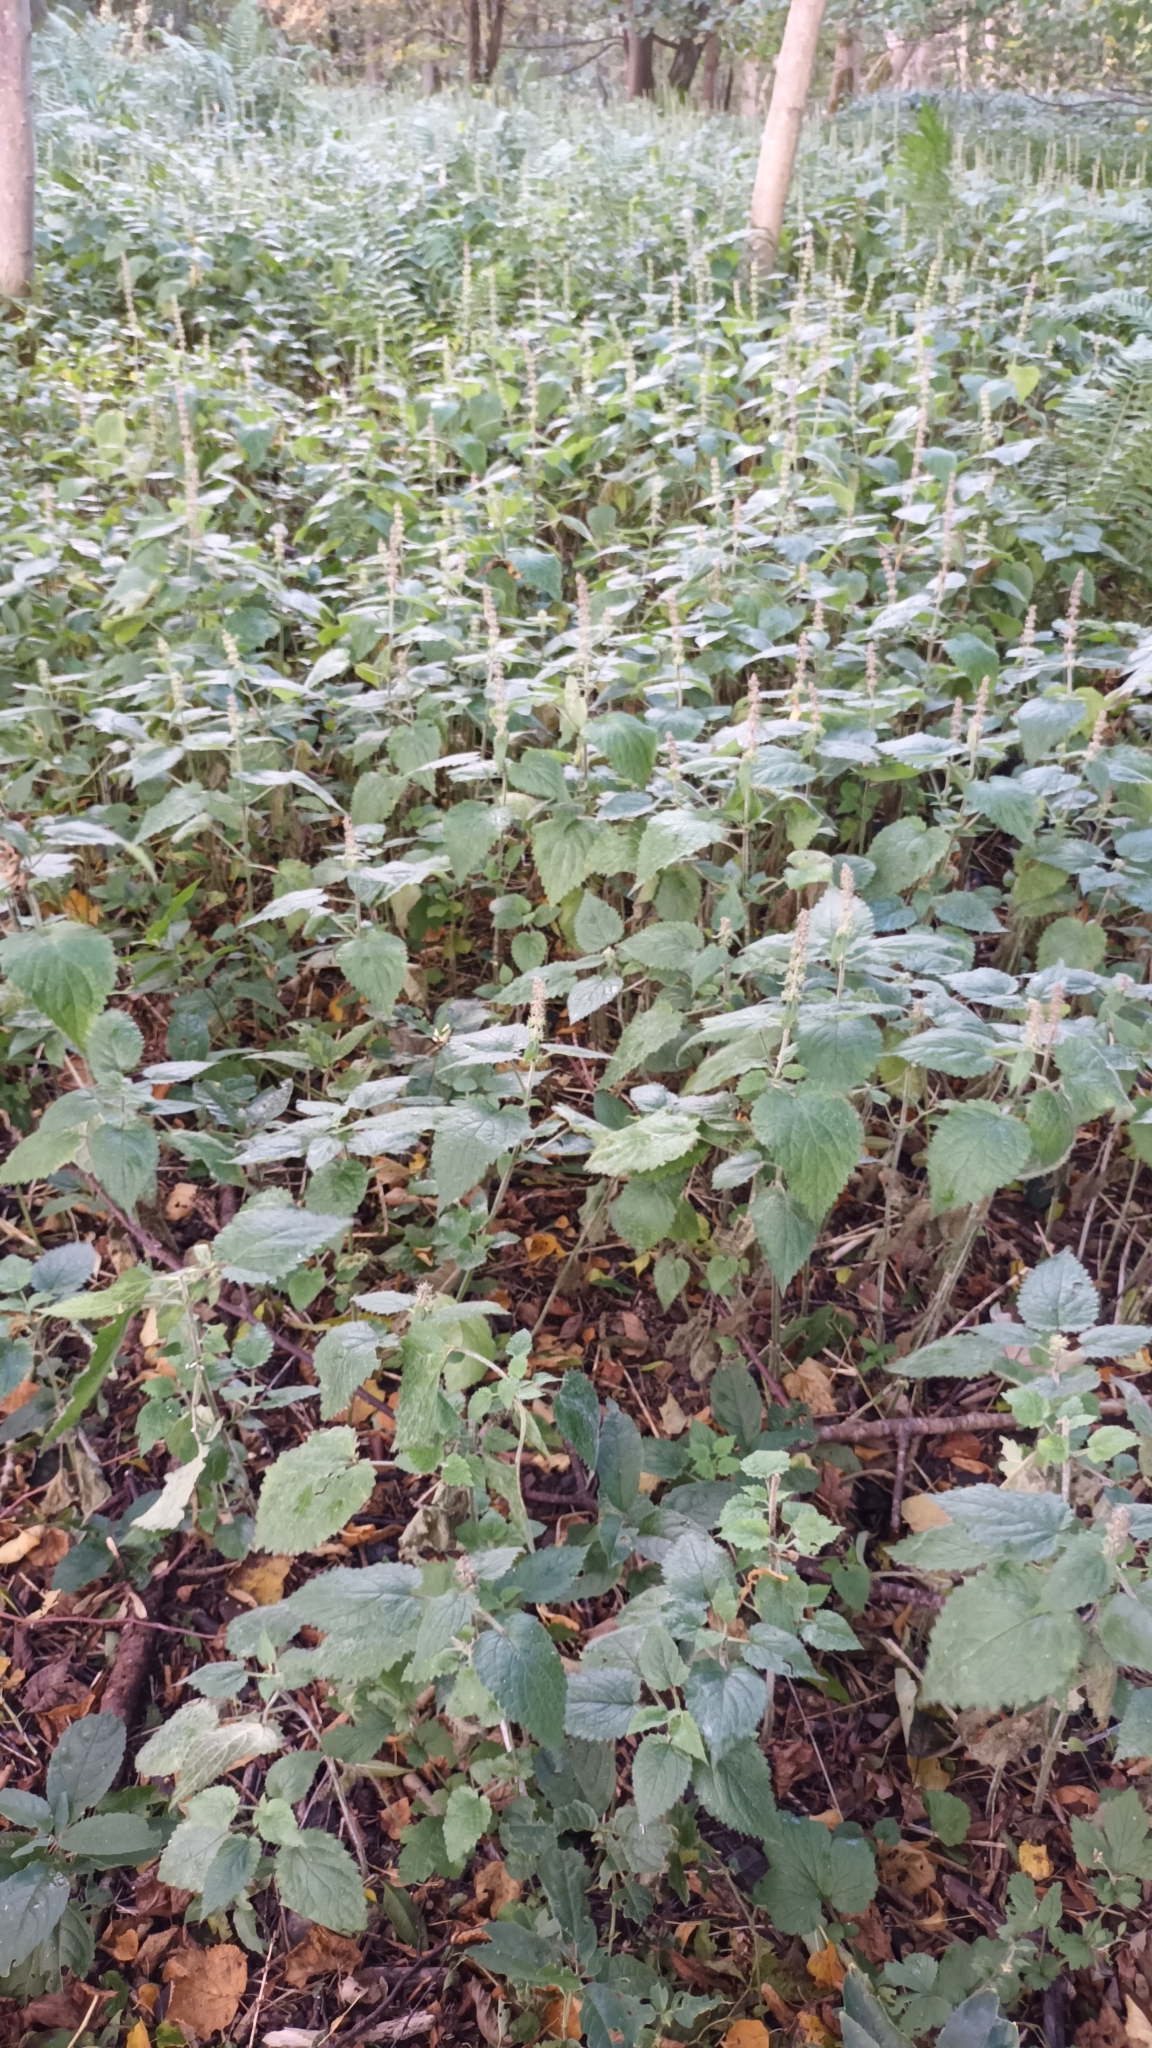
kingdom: Plantae
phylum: Tracheophyta
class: Magnoliopsida
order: Lamiales
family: Lamiaceae
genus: Stachys
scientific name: Stachys sylvatica
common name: Hedge woundwort
